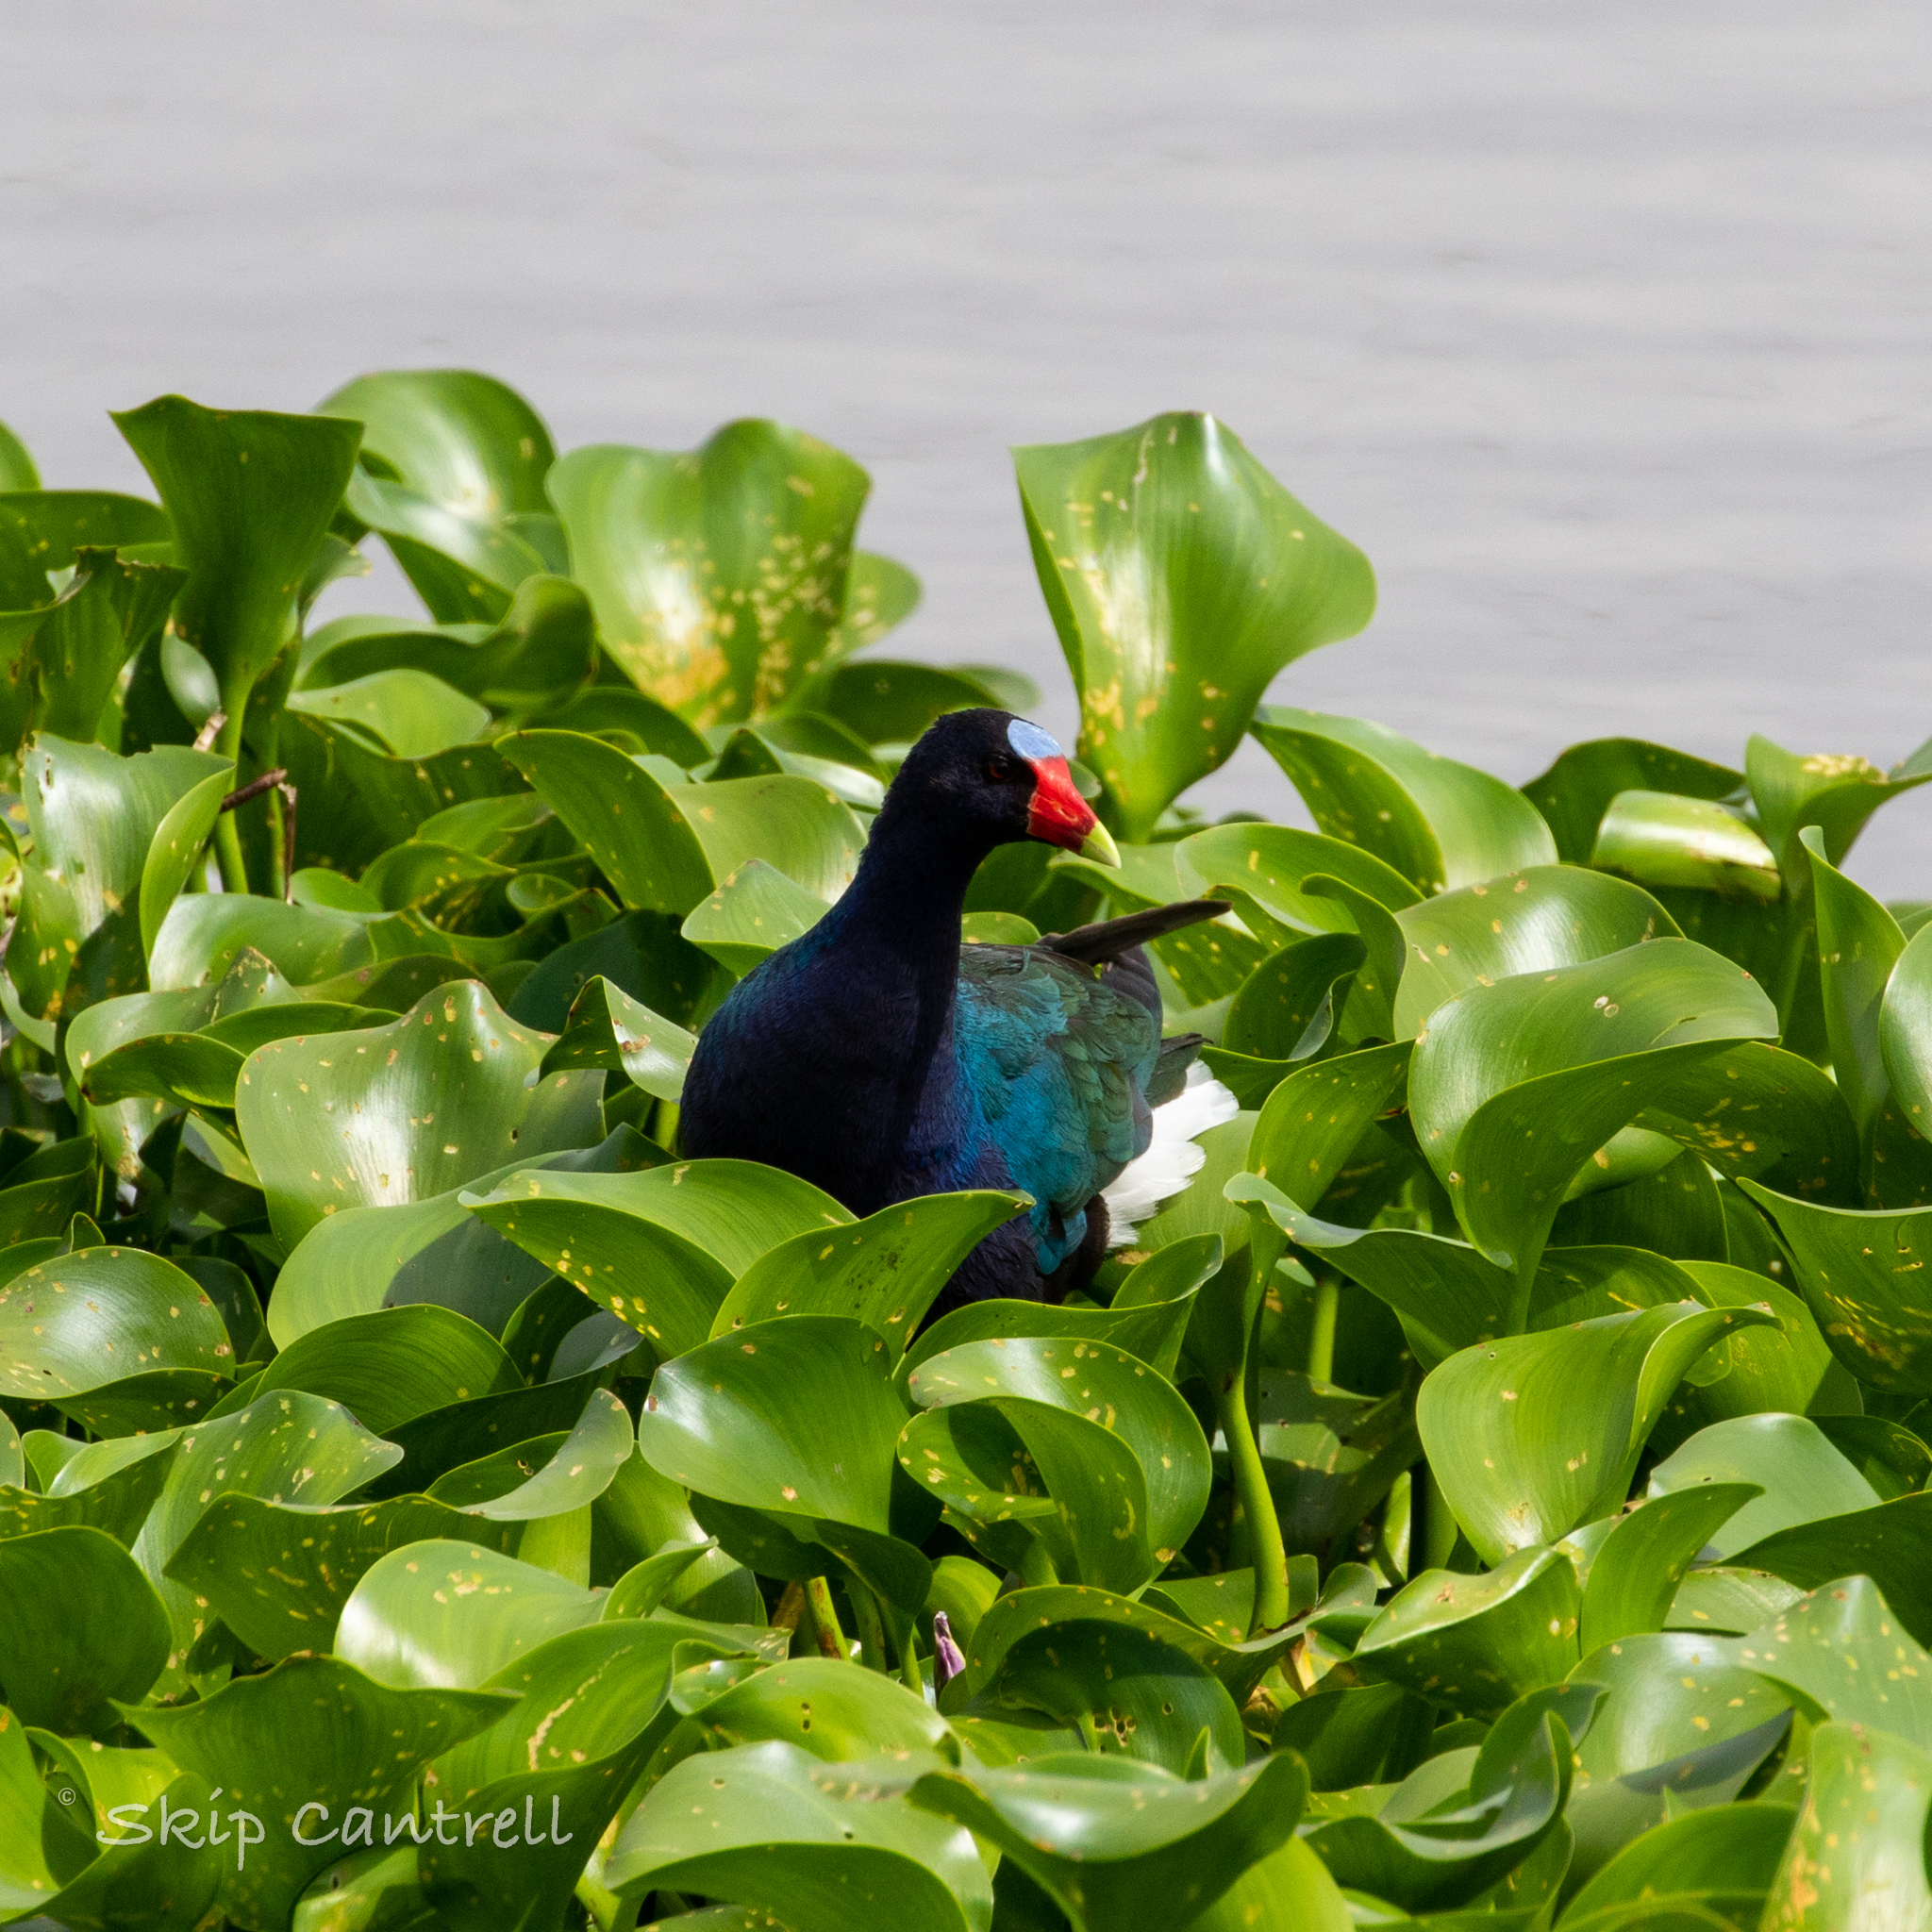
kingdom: Animalia
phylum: Chordata
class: Aves
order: Gruiformes
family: Rallidae
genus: Porphyrio
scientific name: Porphyrio martinica
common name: Purple gallinule
